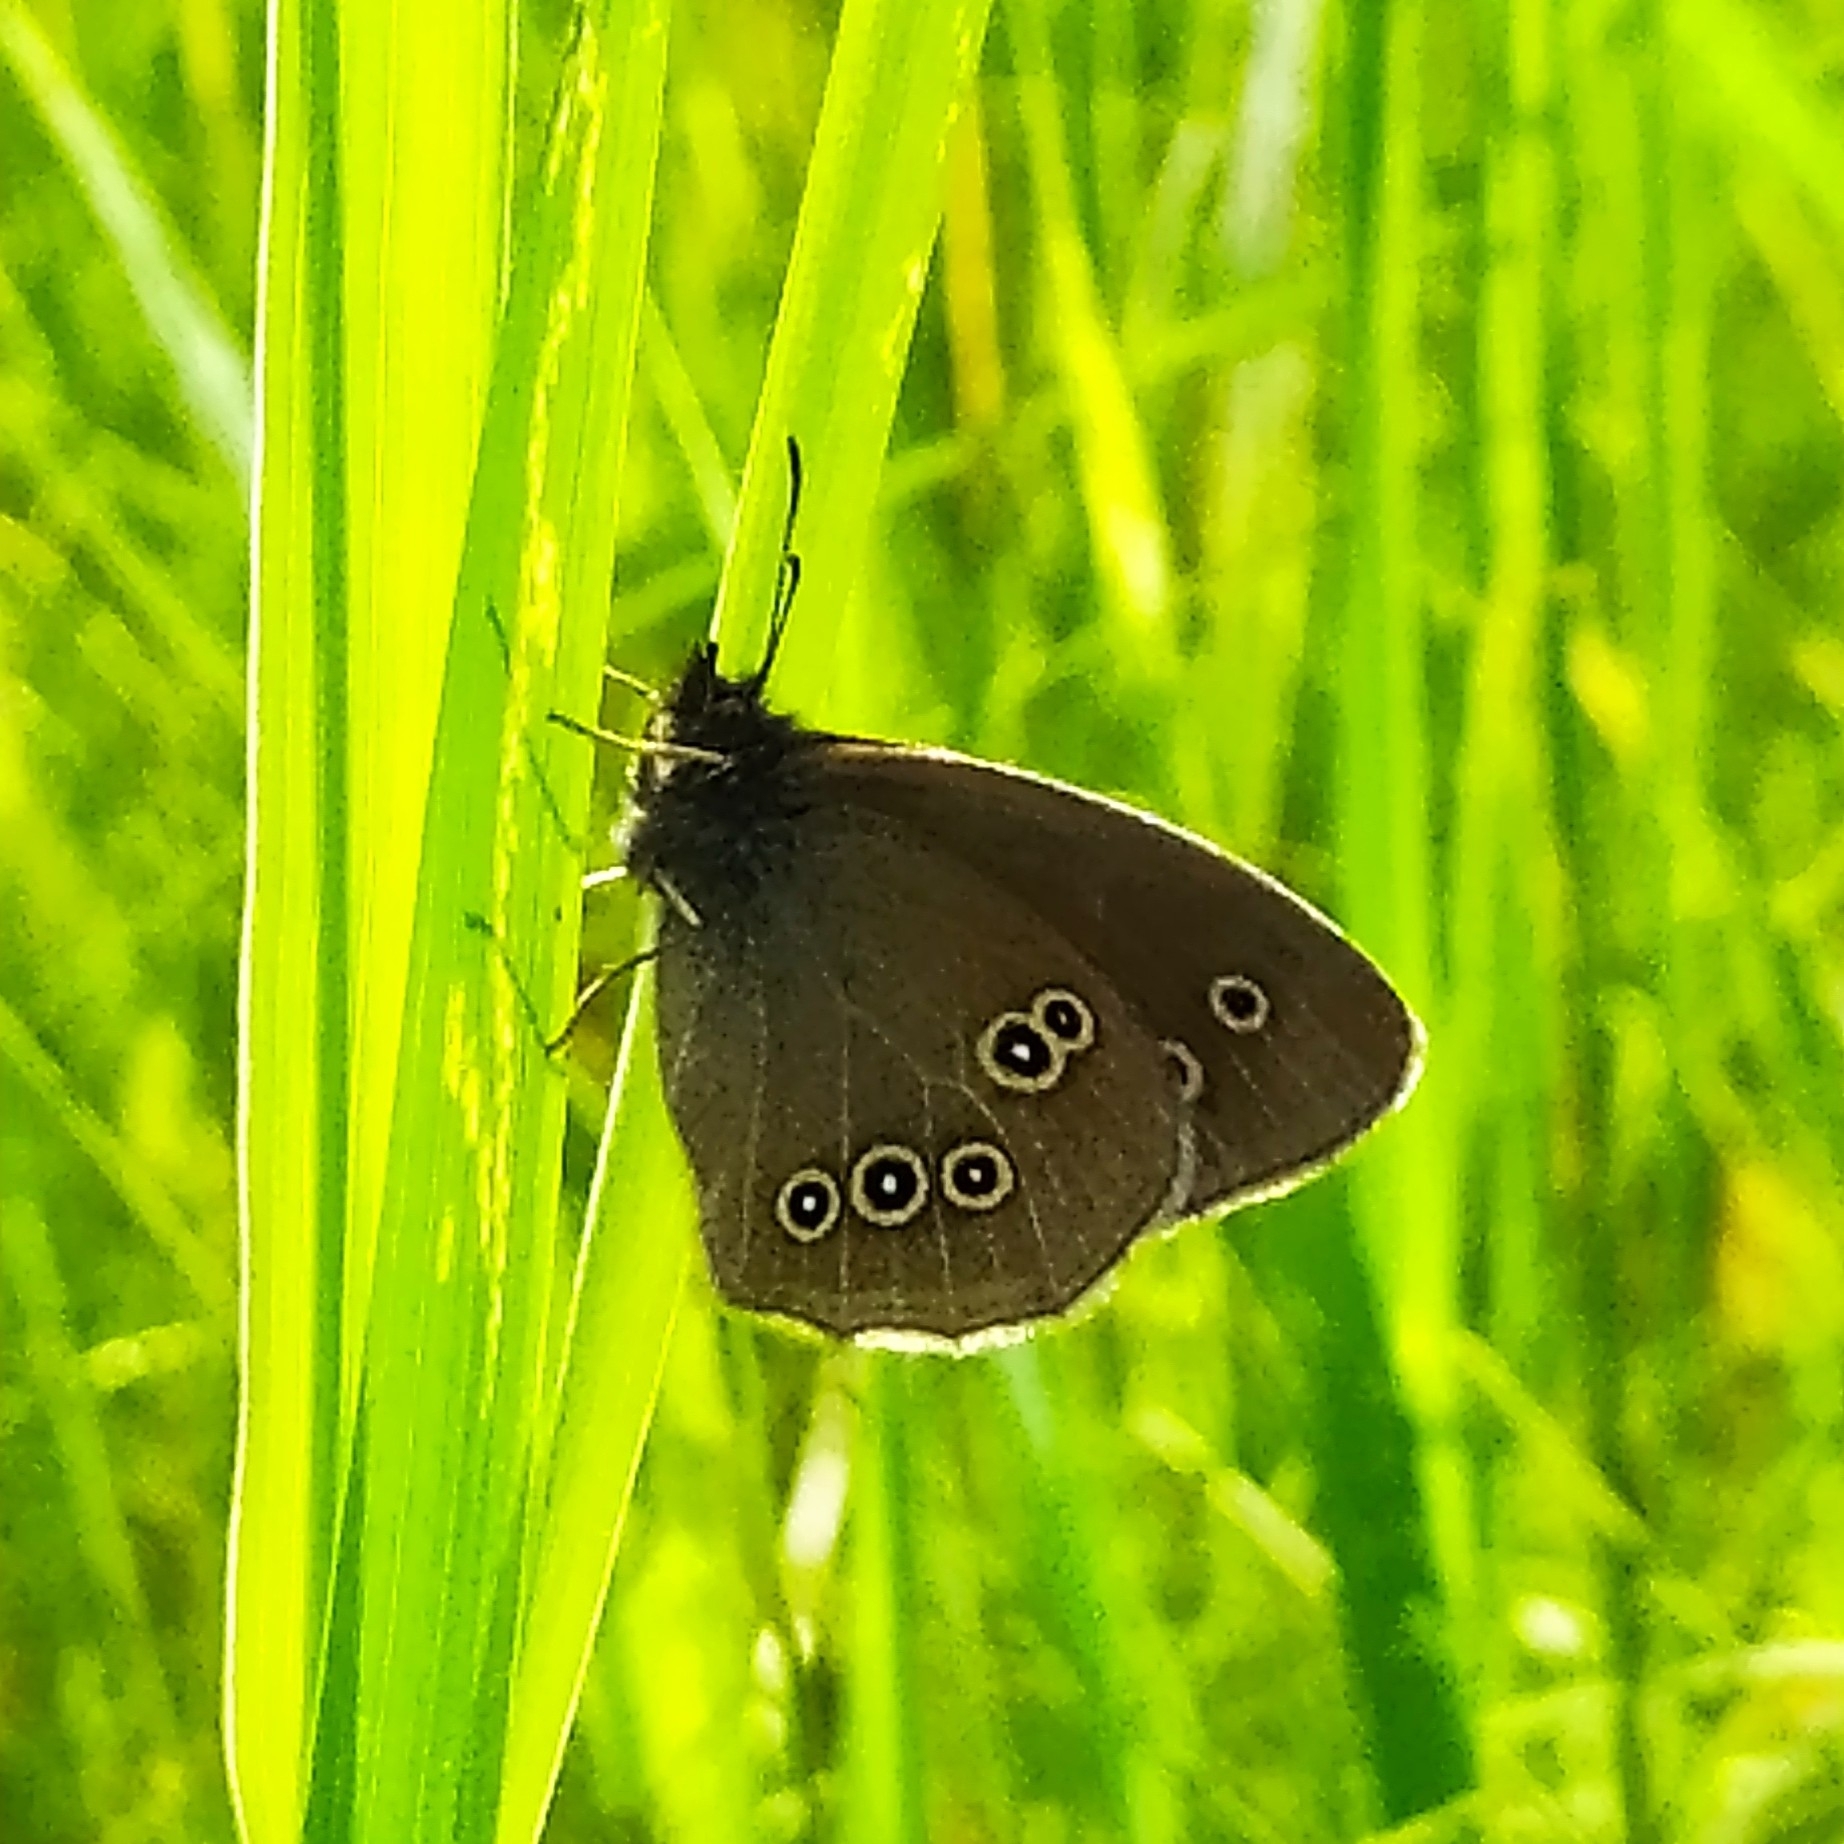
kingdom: Animalia
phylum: Arthropoda
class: Insecta
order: Lepidoptera
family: Nymphalidae
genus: Aphantopus
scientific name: Aphantopus hyperantus
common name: Ringlet
